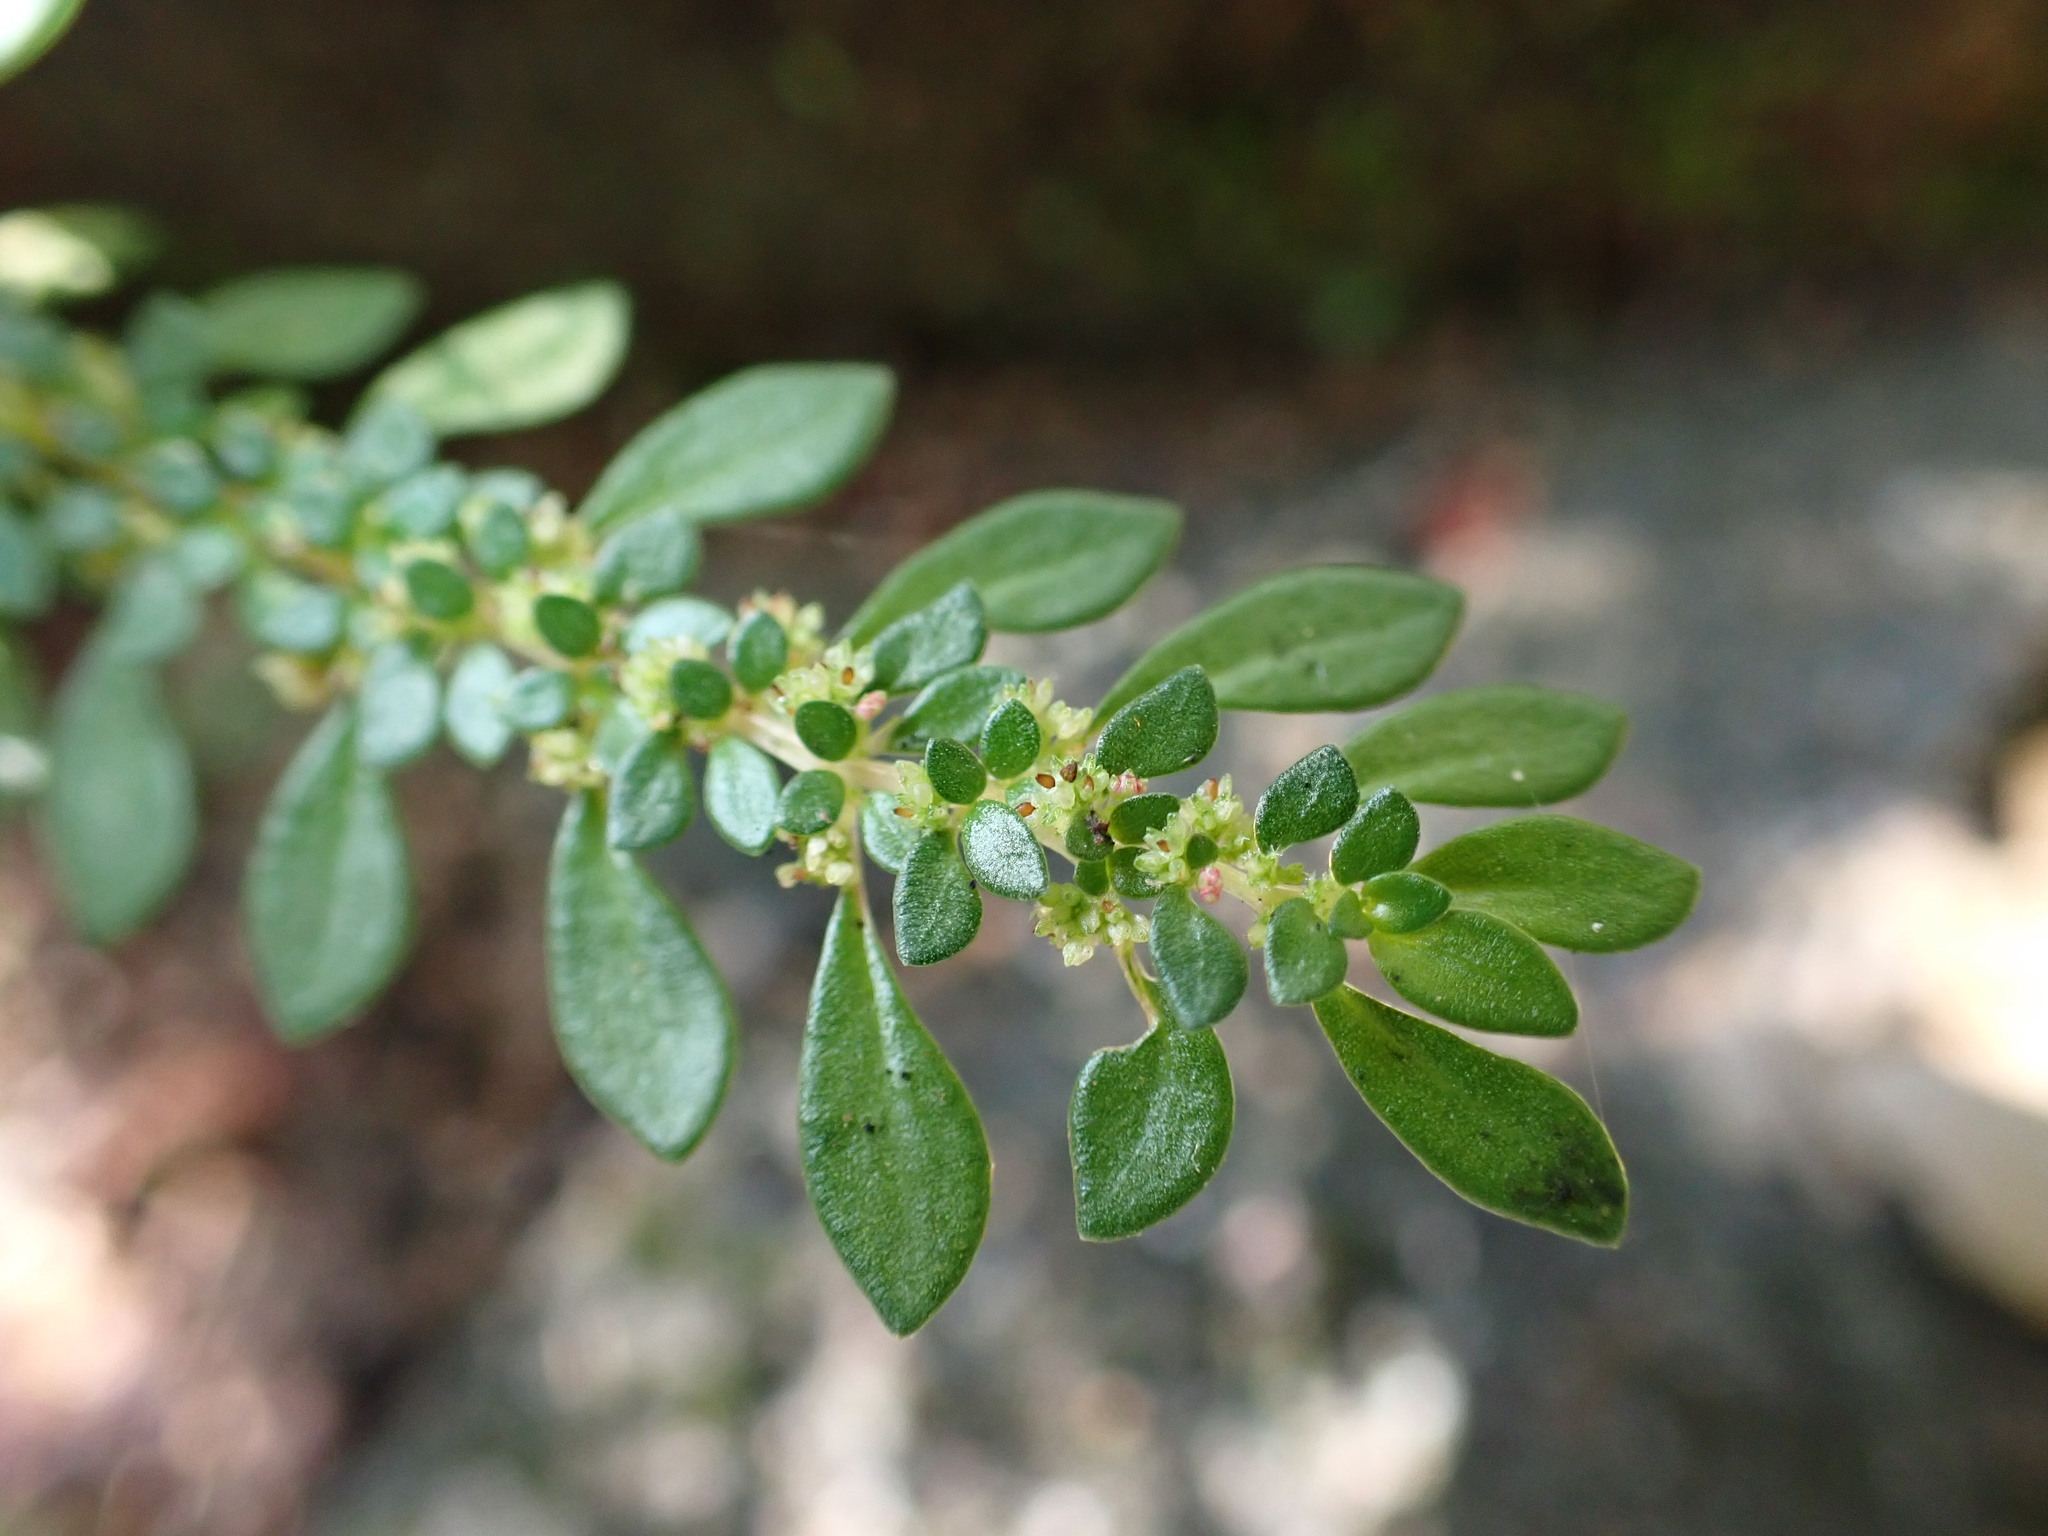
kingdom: Plantae
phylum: Tracheophyta
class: Magnoliopsida
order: Rosales
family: Urticaceae
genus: Pilea
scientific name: Pilea microphylla
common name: Artillery-plant
